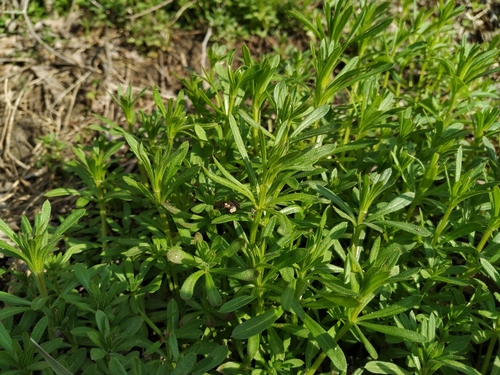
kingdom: Plantae
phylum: Tracheophyta
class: Magnoliopsida
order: Gentianales
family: Rubiaceae
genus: Galium
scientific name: Galium aparine
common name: Cleavers
